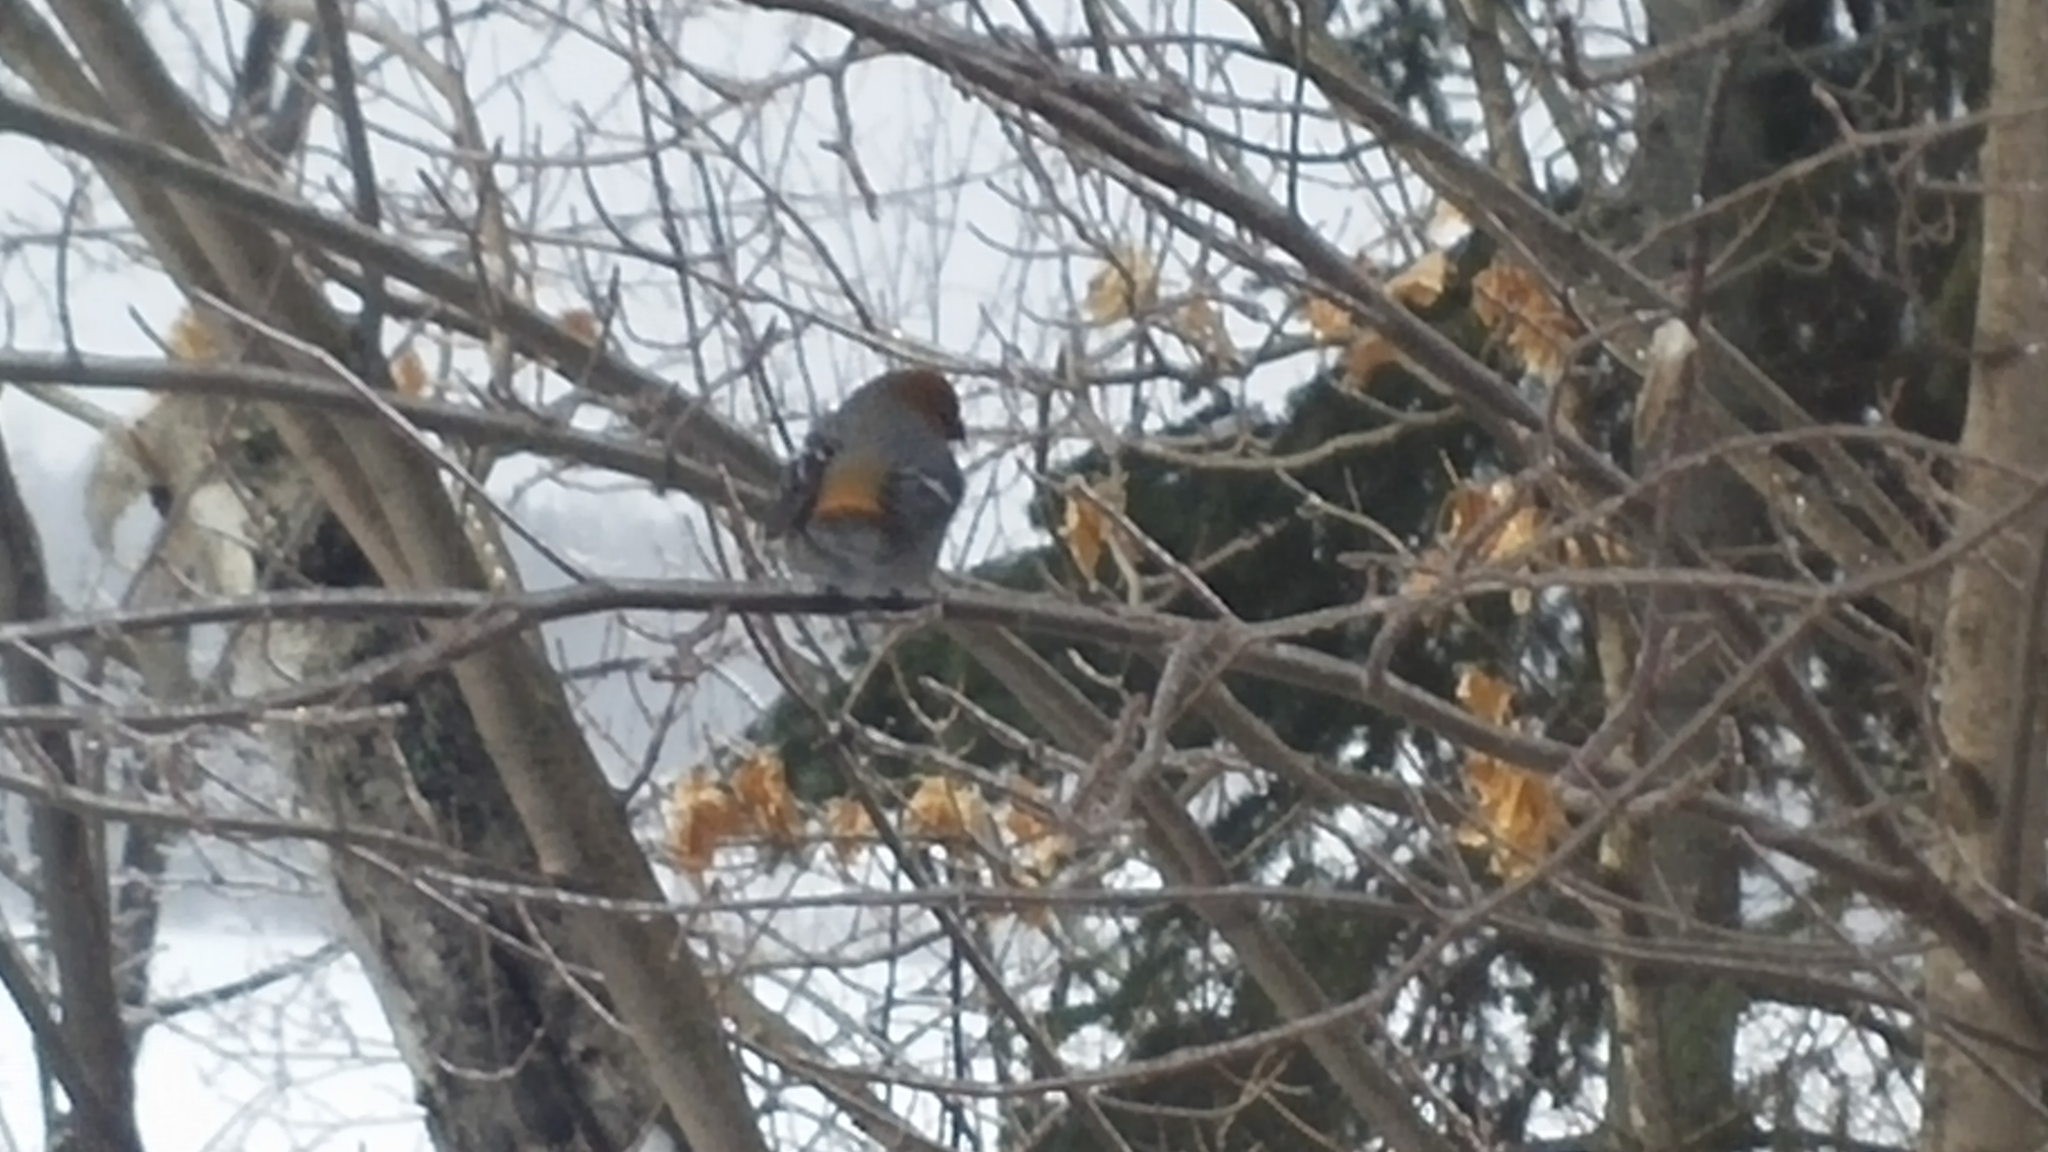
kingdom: Animalia
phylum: Chordata
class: Aves
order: Passeriformes
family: Fringillidae
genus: Pinicola
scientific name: Pinicola enucleator
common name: Pine grosbeak
